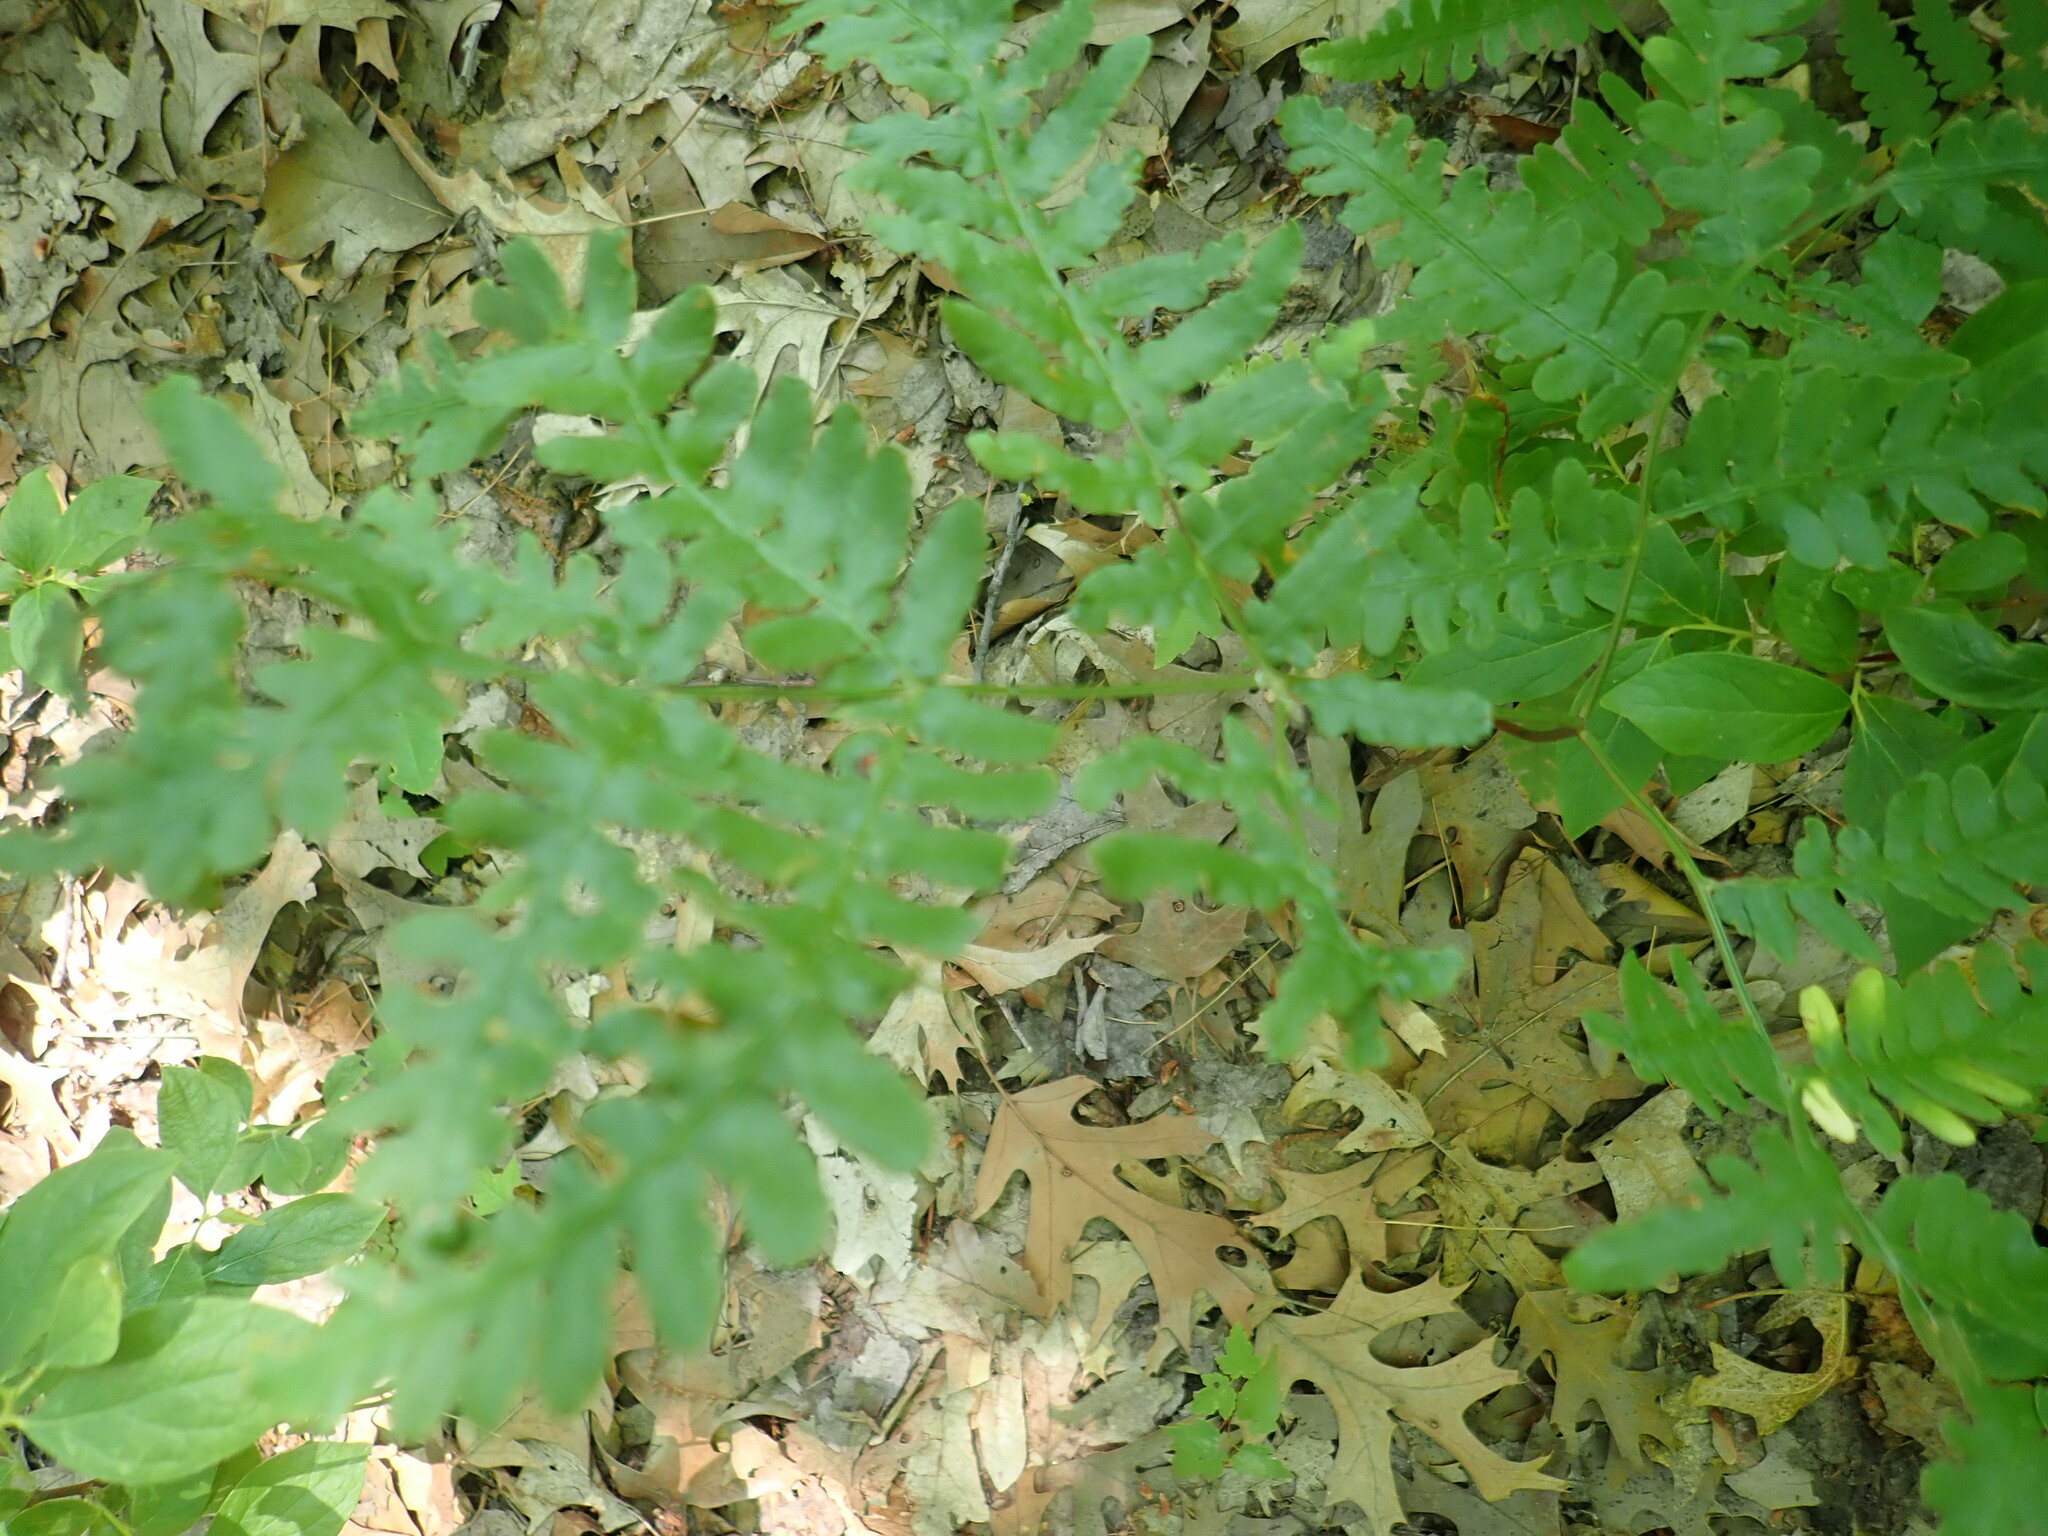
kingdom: Plantae
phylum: Tracheophyta
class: Polypodiopsida
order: Polypodiales
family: Dennstaedtiaceae
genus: Pteridium
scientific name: Pteridium aquilinum
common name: Bracken
